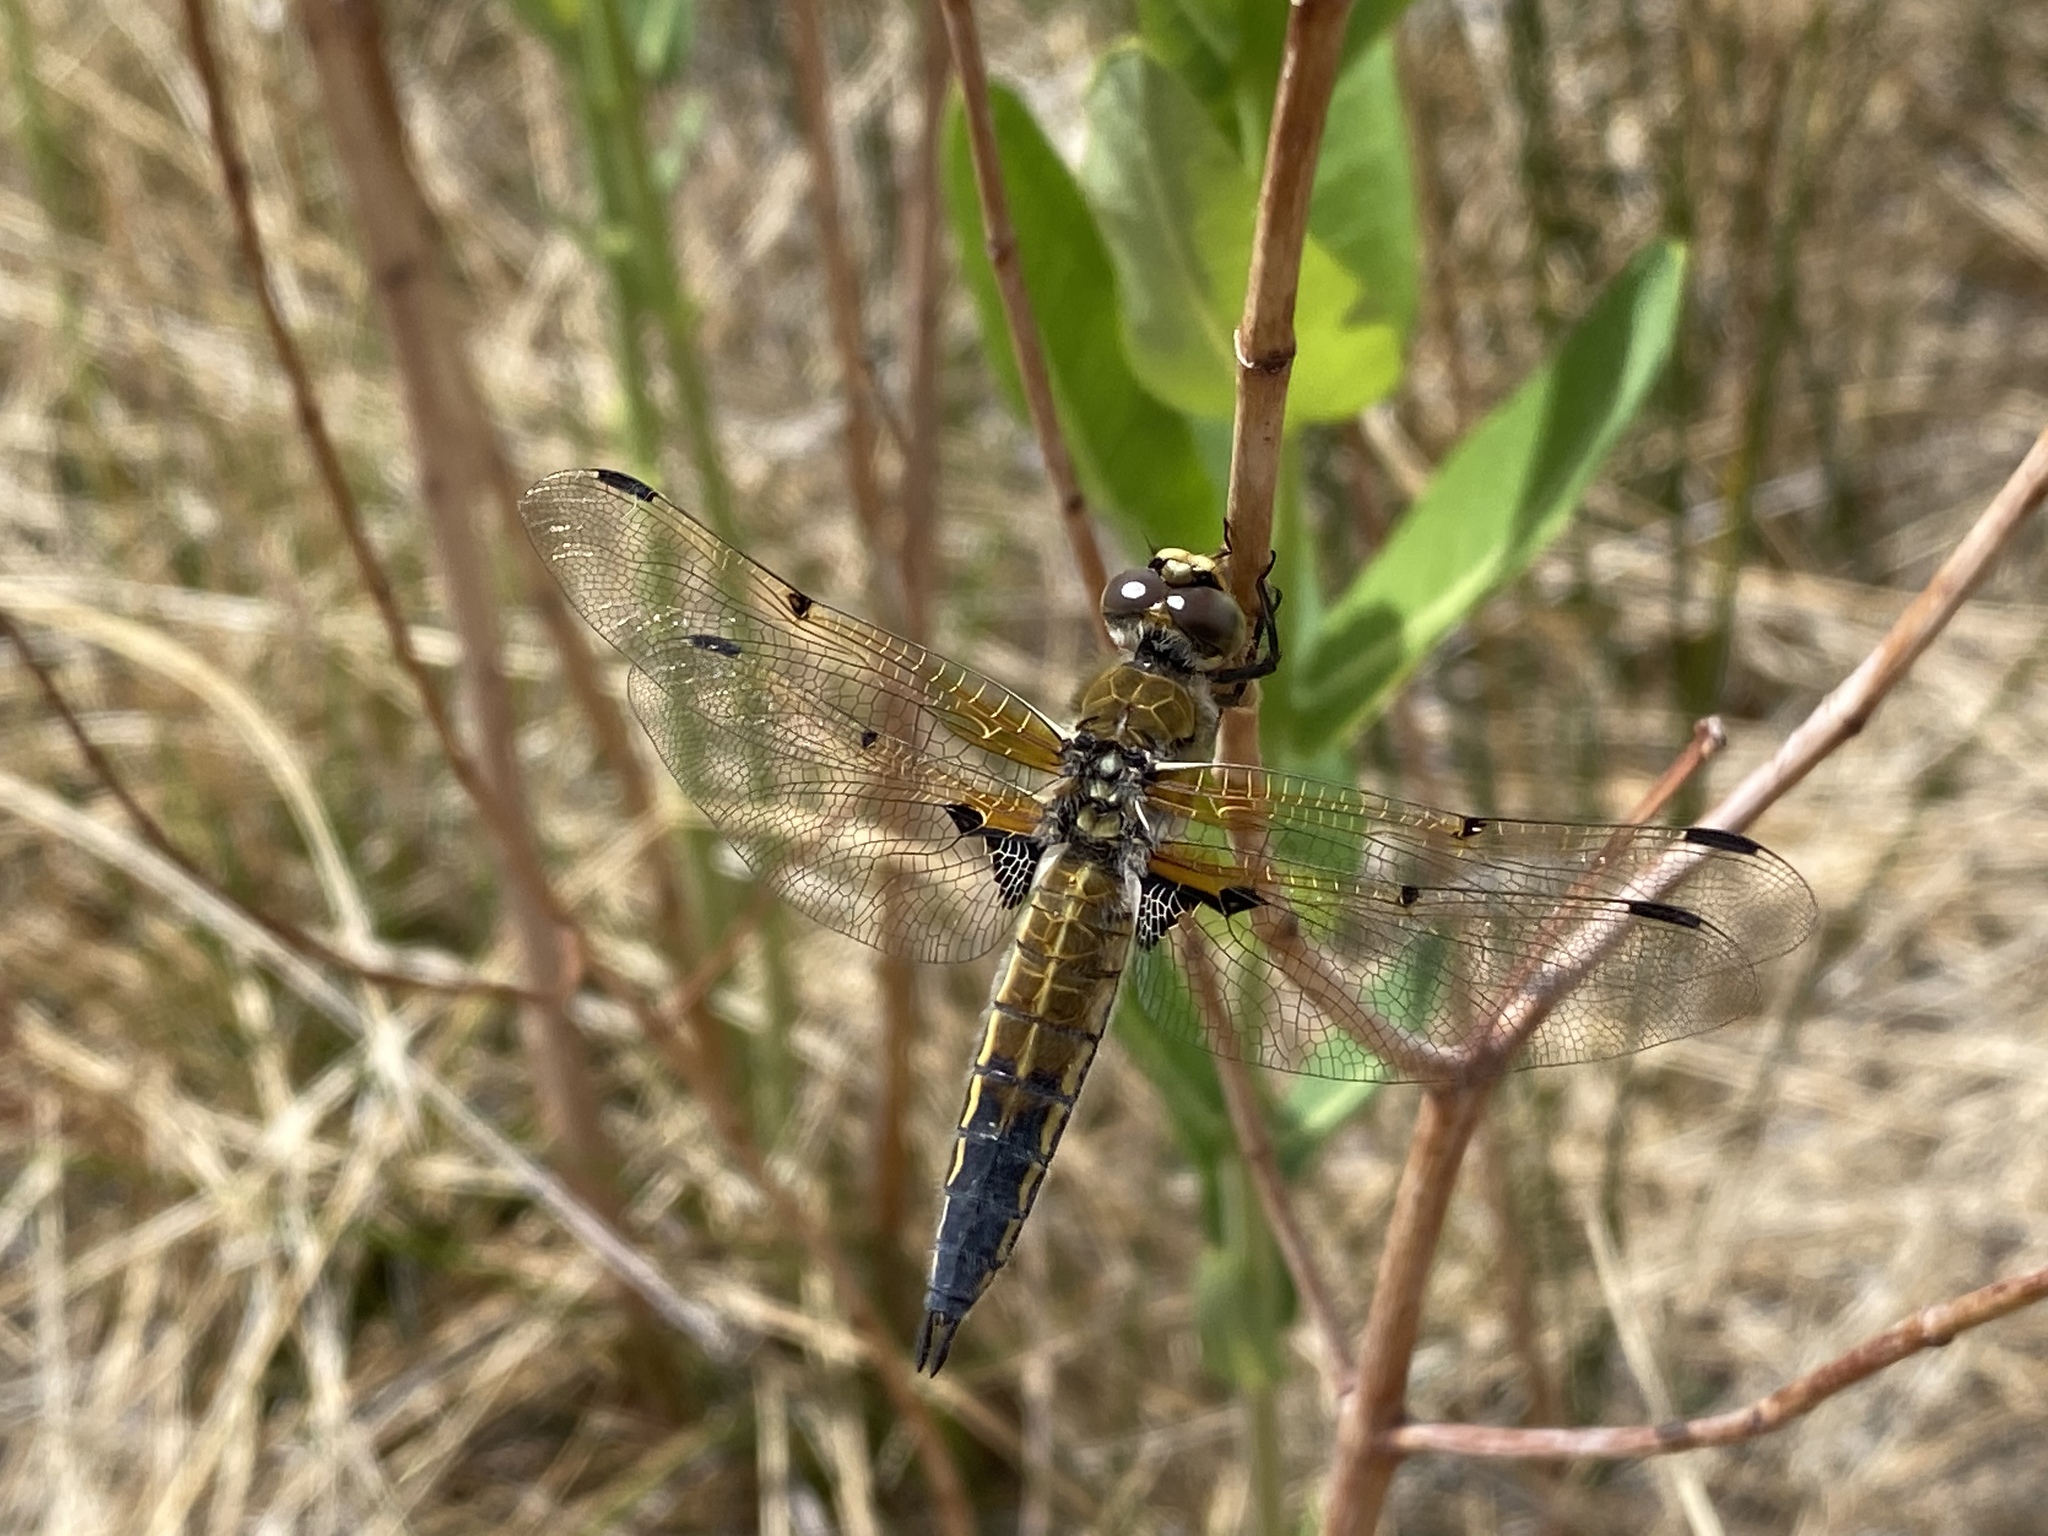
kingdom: Animalia
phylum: Arthropoda
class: Insecta
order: Odonata
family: Libellulidae
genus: Libellula
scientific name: Libellula quadrimaculata
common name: Four-spotted chaser
